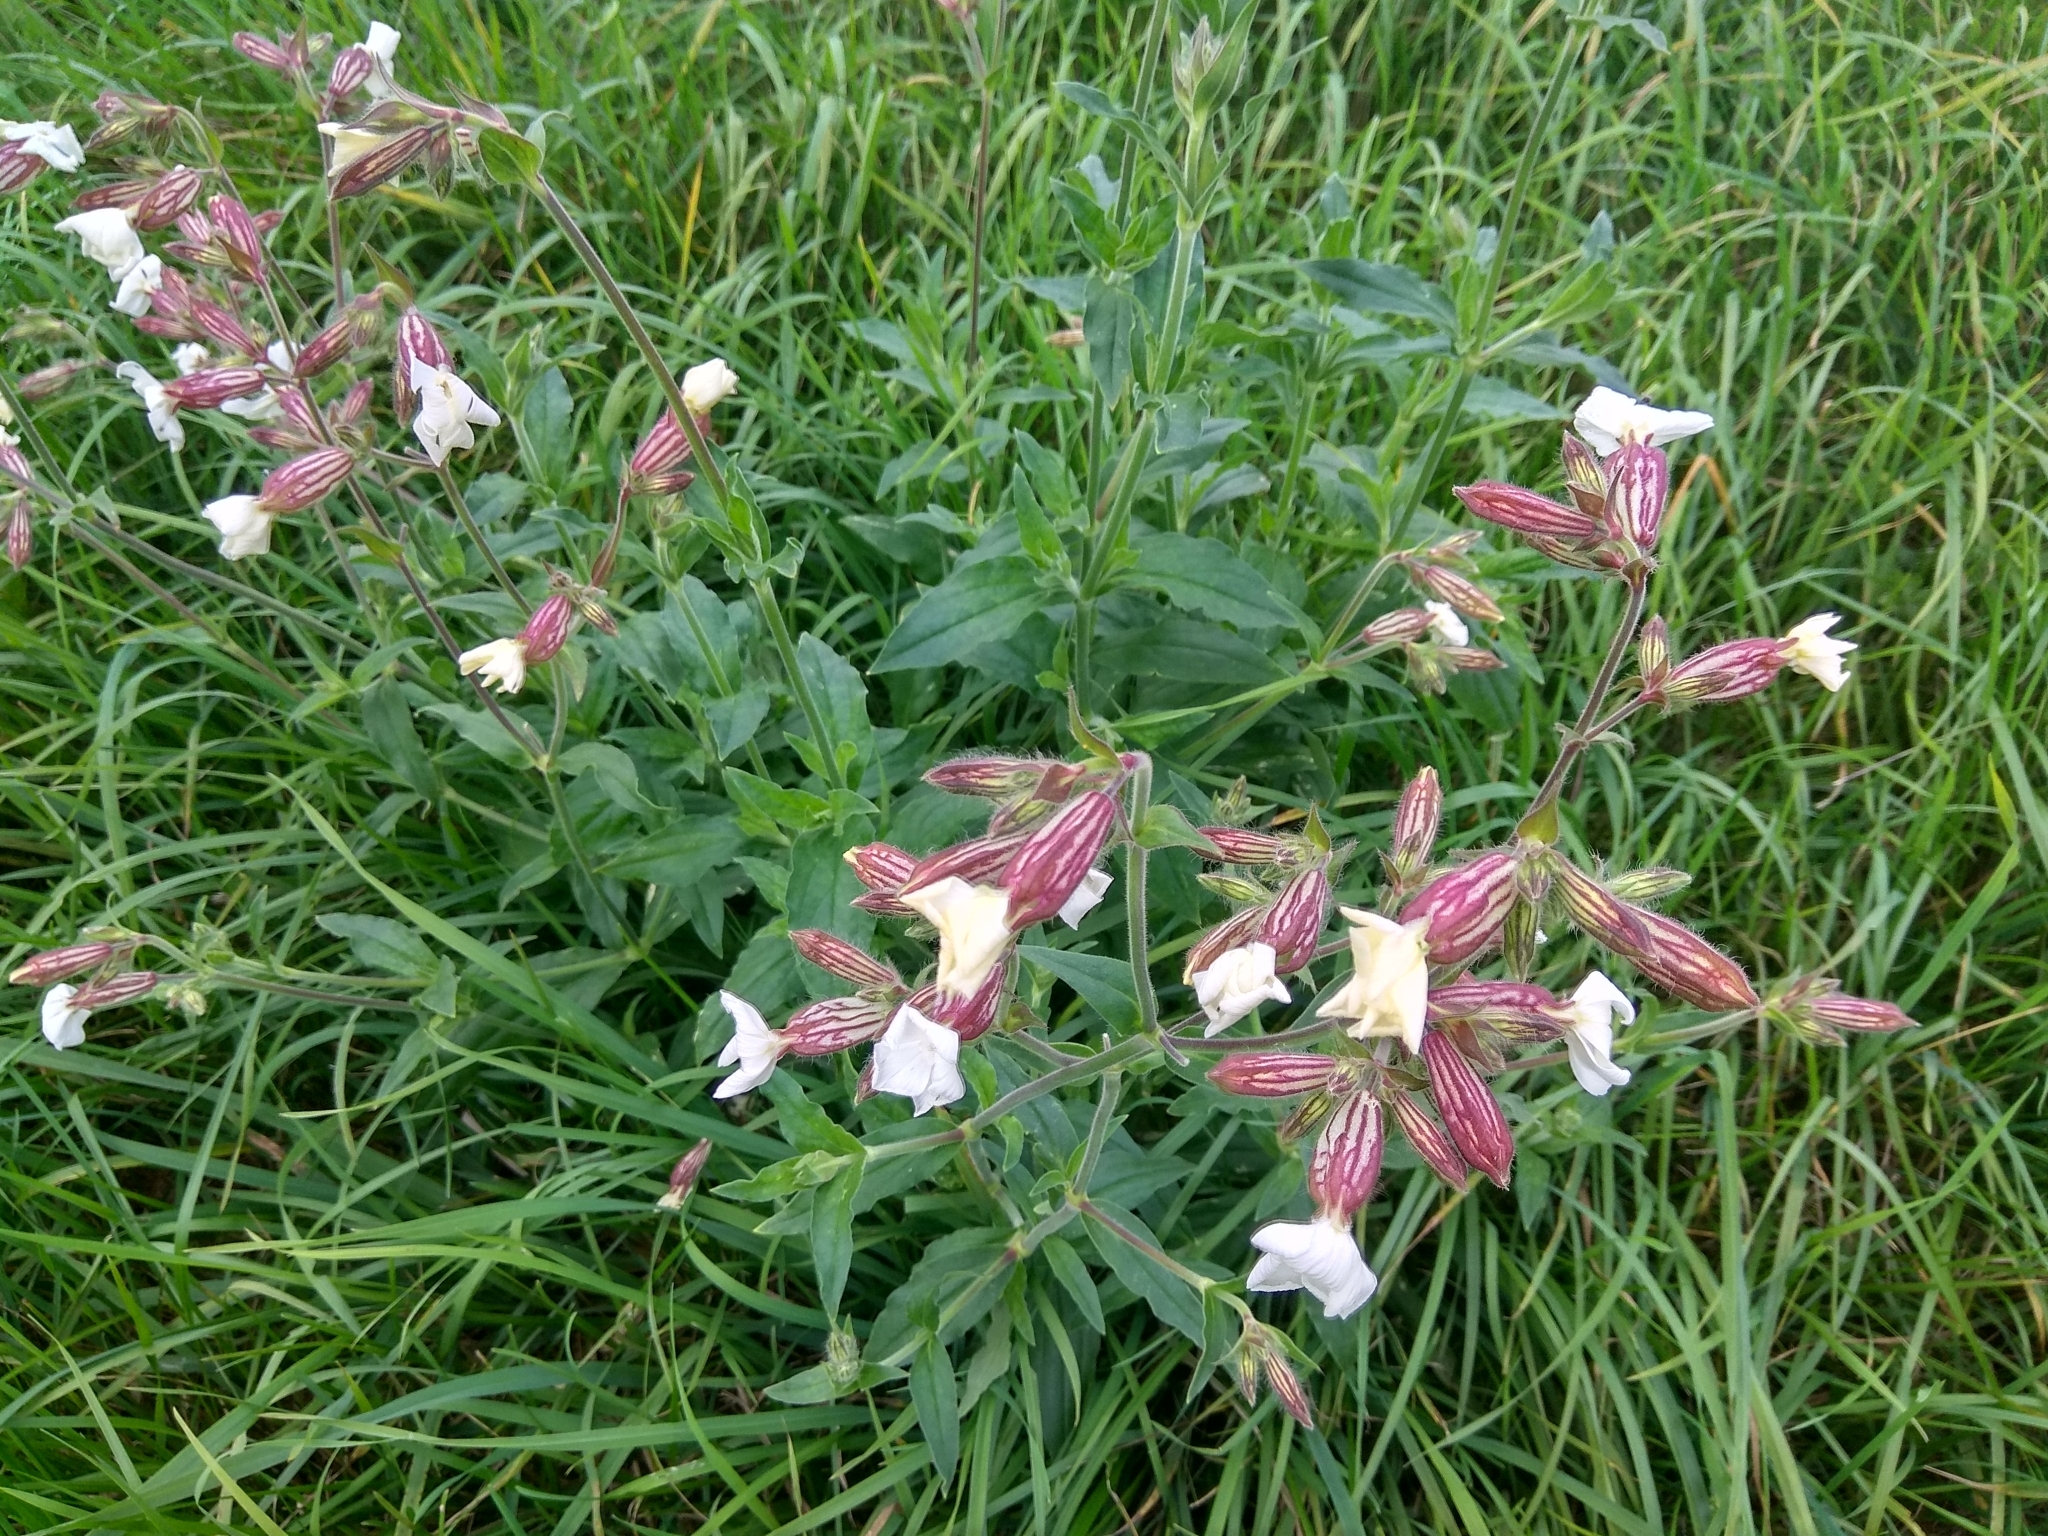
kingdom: Plantae
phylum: Tracheophyta
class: Magnoliopsida
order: Caryophyllales
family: Caryophyllaceae
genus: Silene
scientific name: Silene latifolia
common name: White campion
